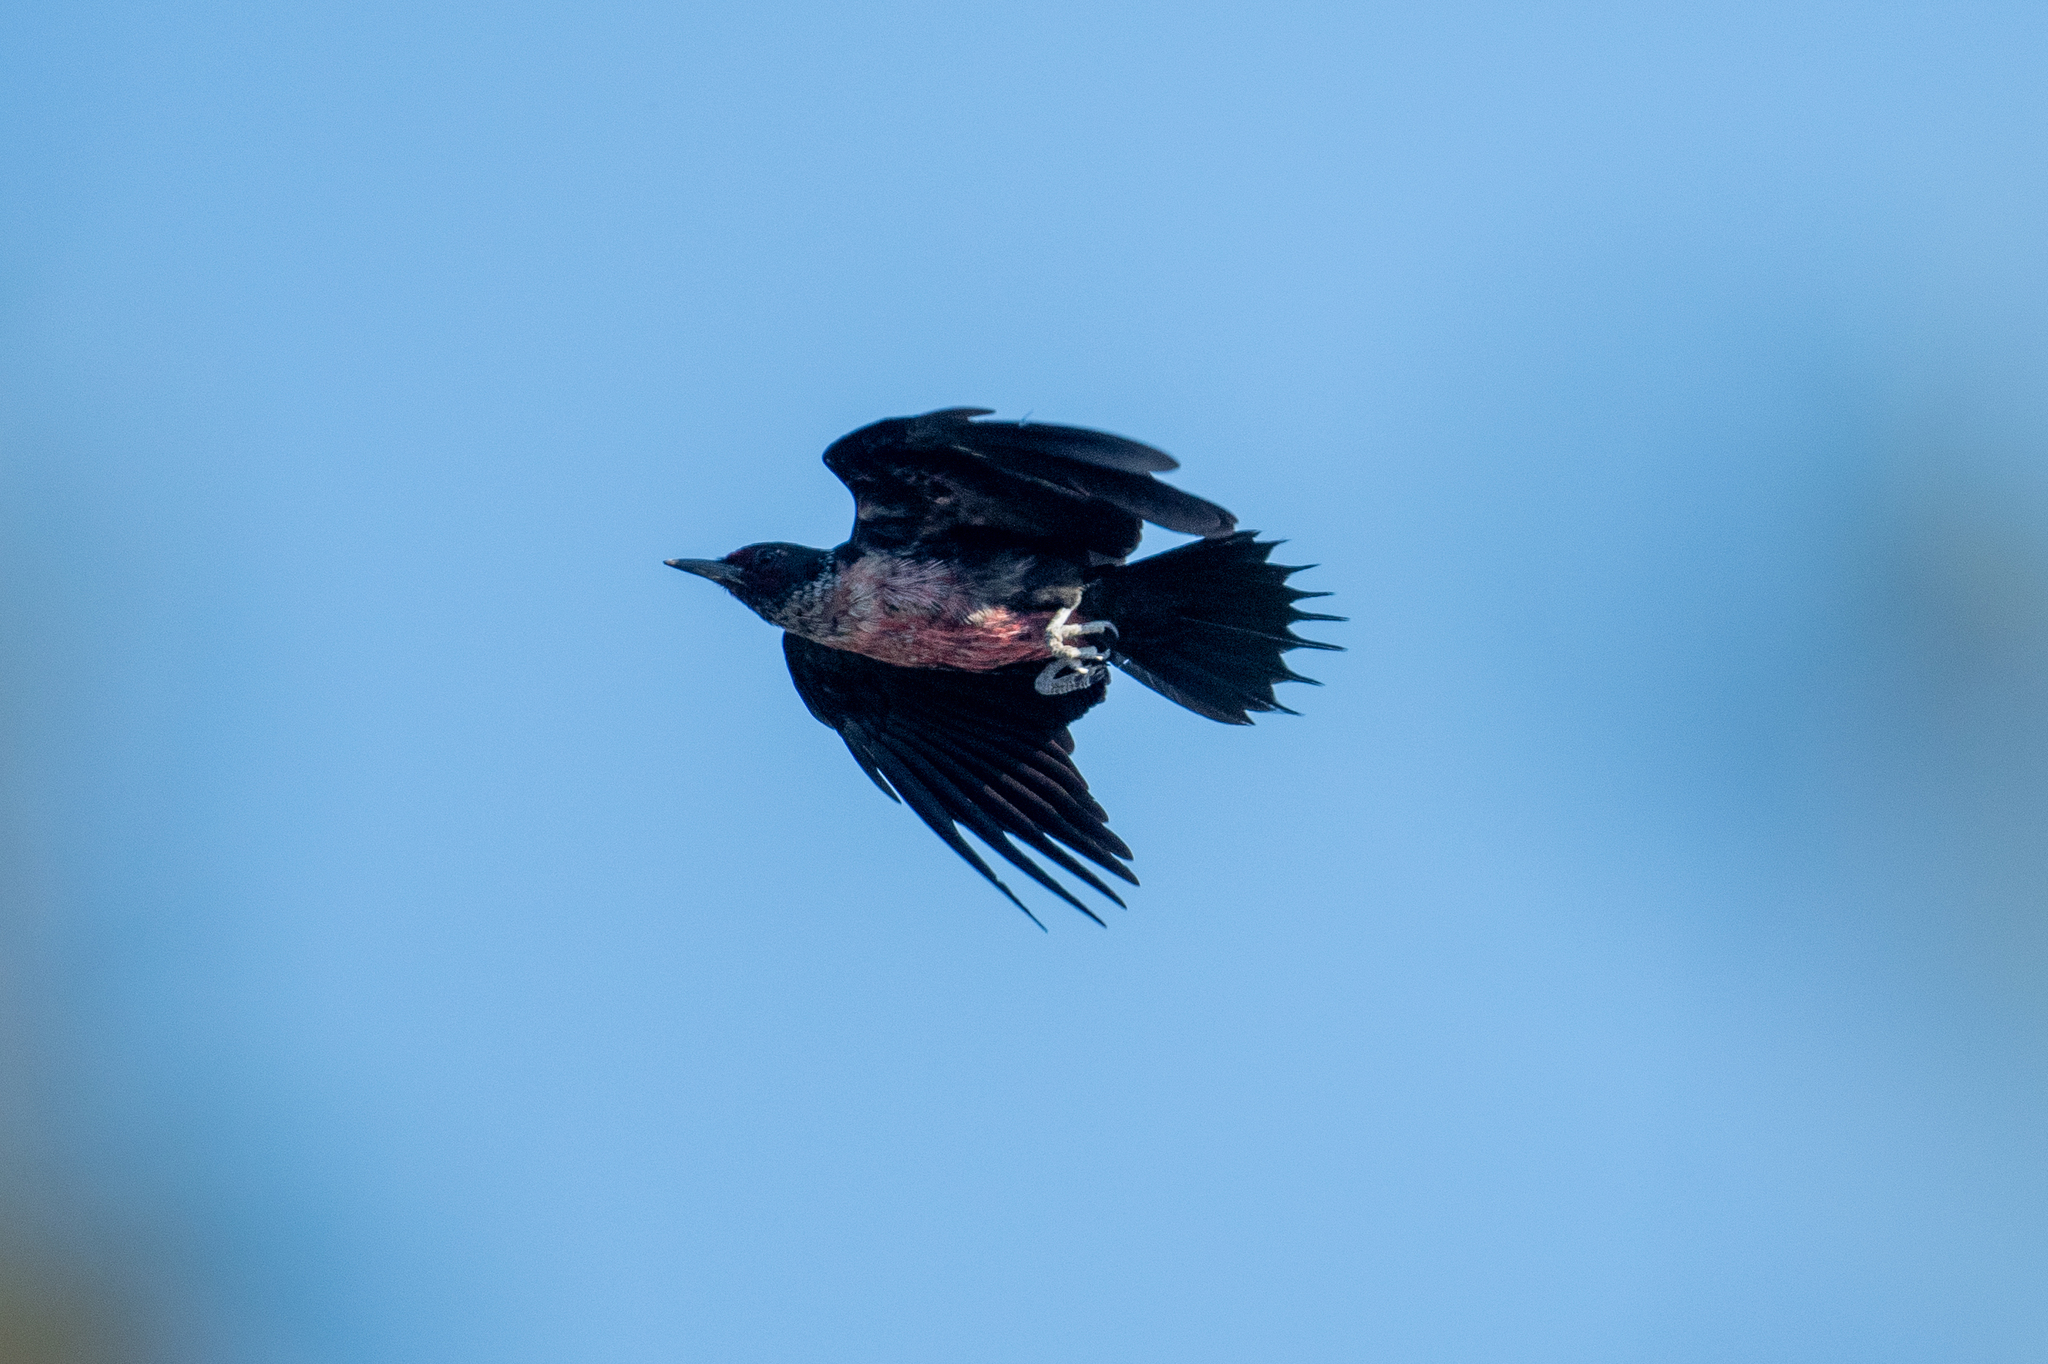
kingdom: Animalia
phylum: Chordata
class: Aves
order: Piciformes
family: Picidae
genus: Melanerpes
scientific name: Melanerpes lewis
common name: Lewis's woodpecker
